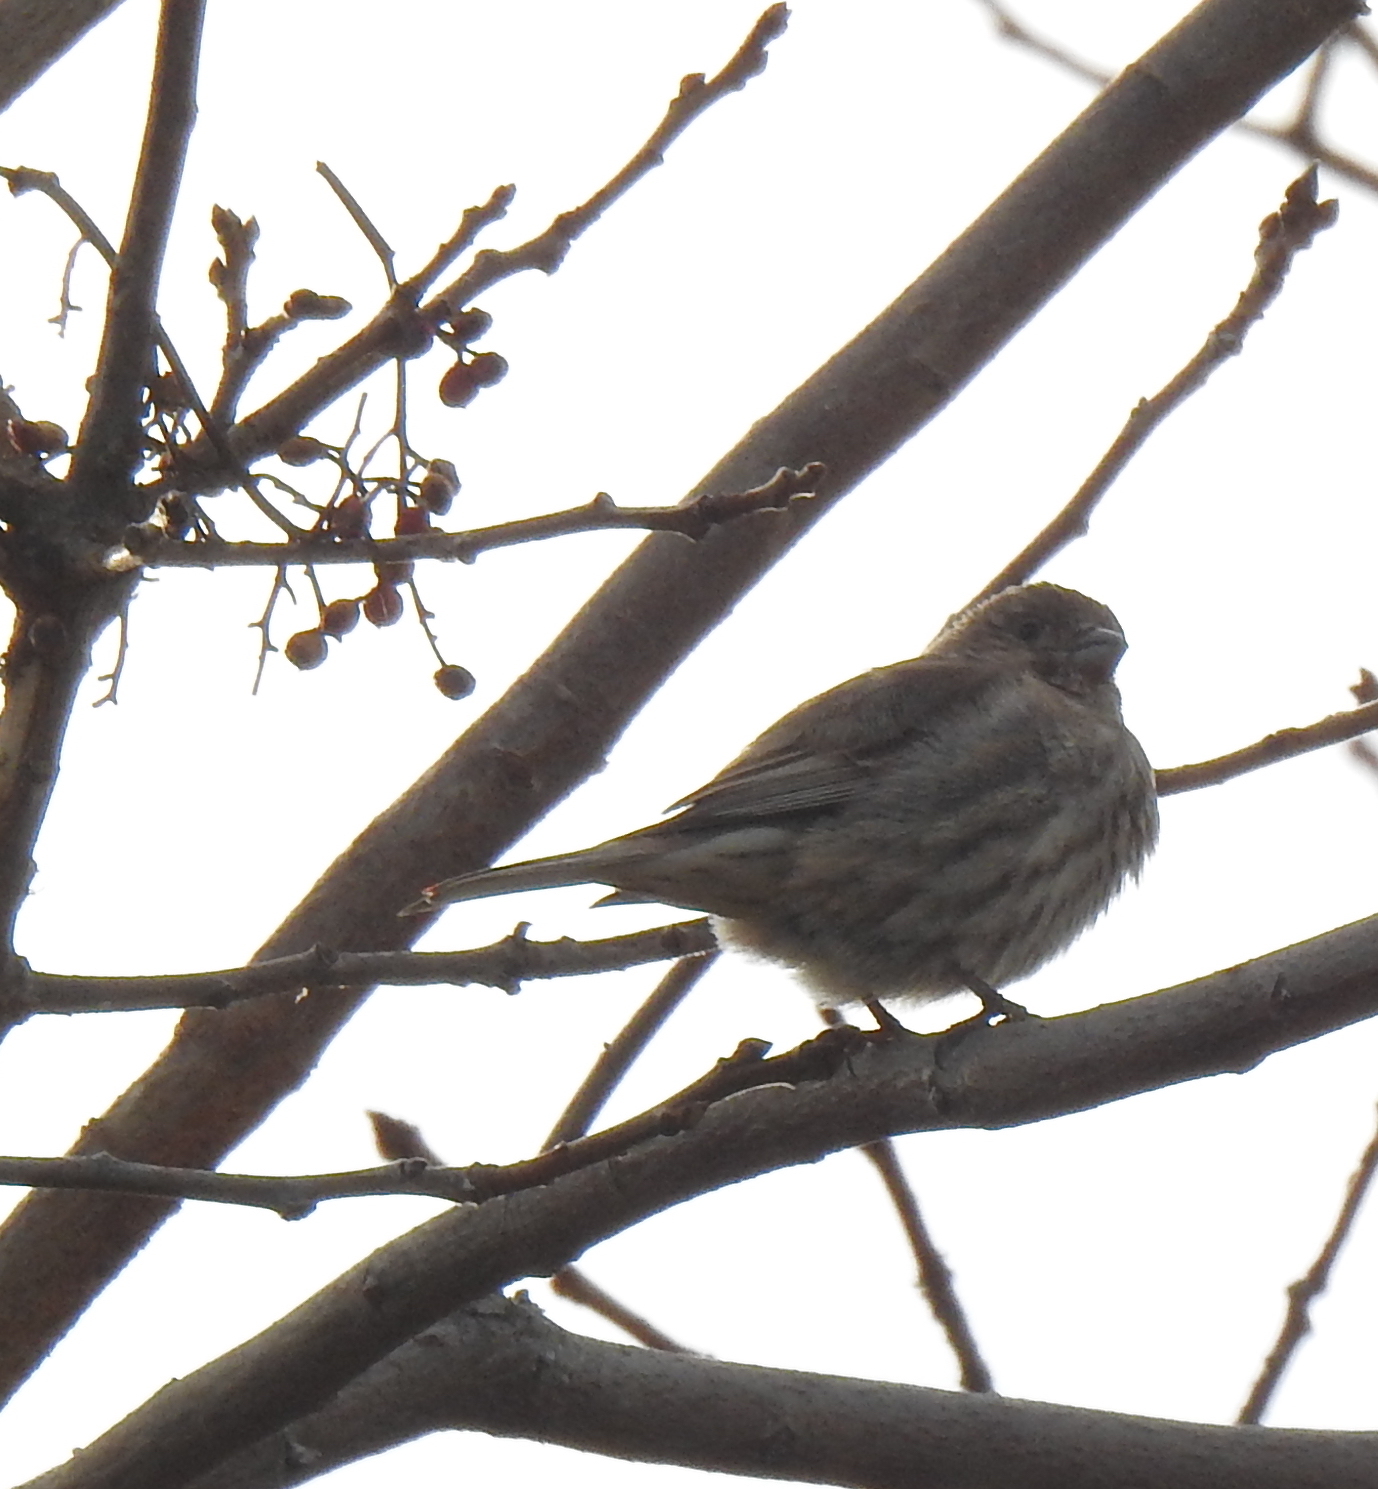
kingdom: Animalia
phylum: Chordata
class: Aves
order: Passeriformes
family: Fringillidae
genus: Haemorhous
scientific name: Haemorhous mexicanus
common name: House finch
